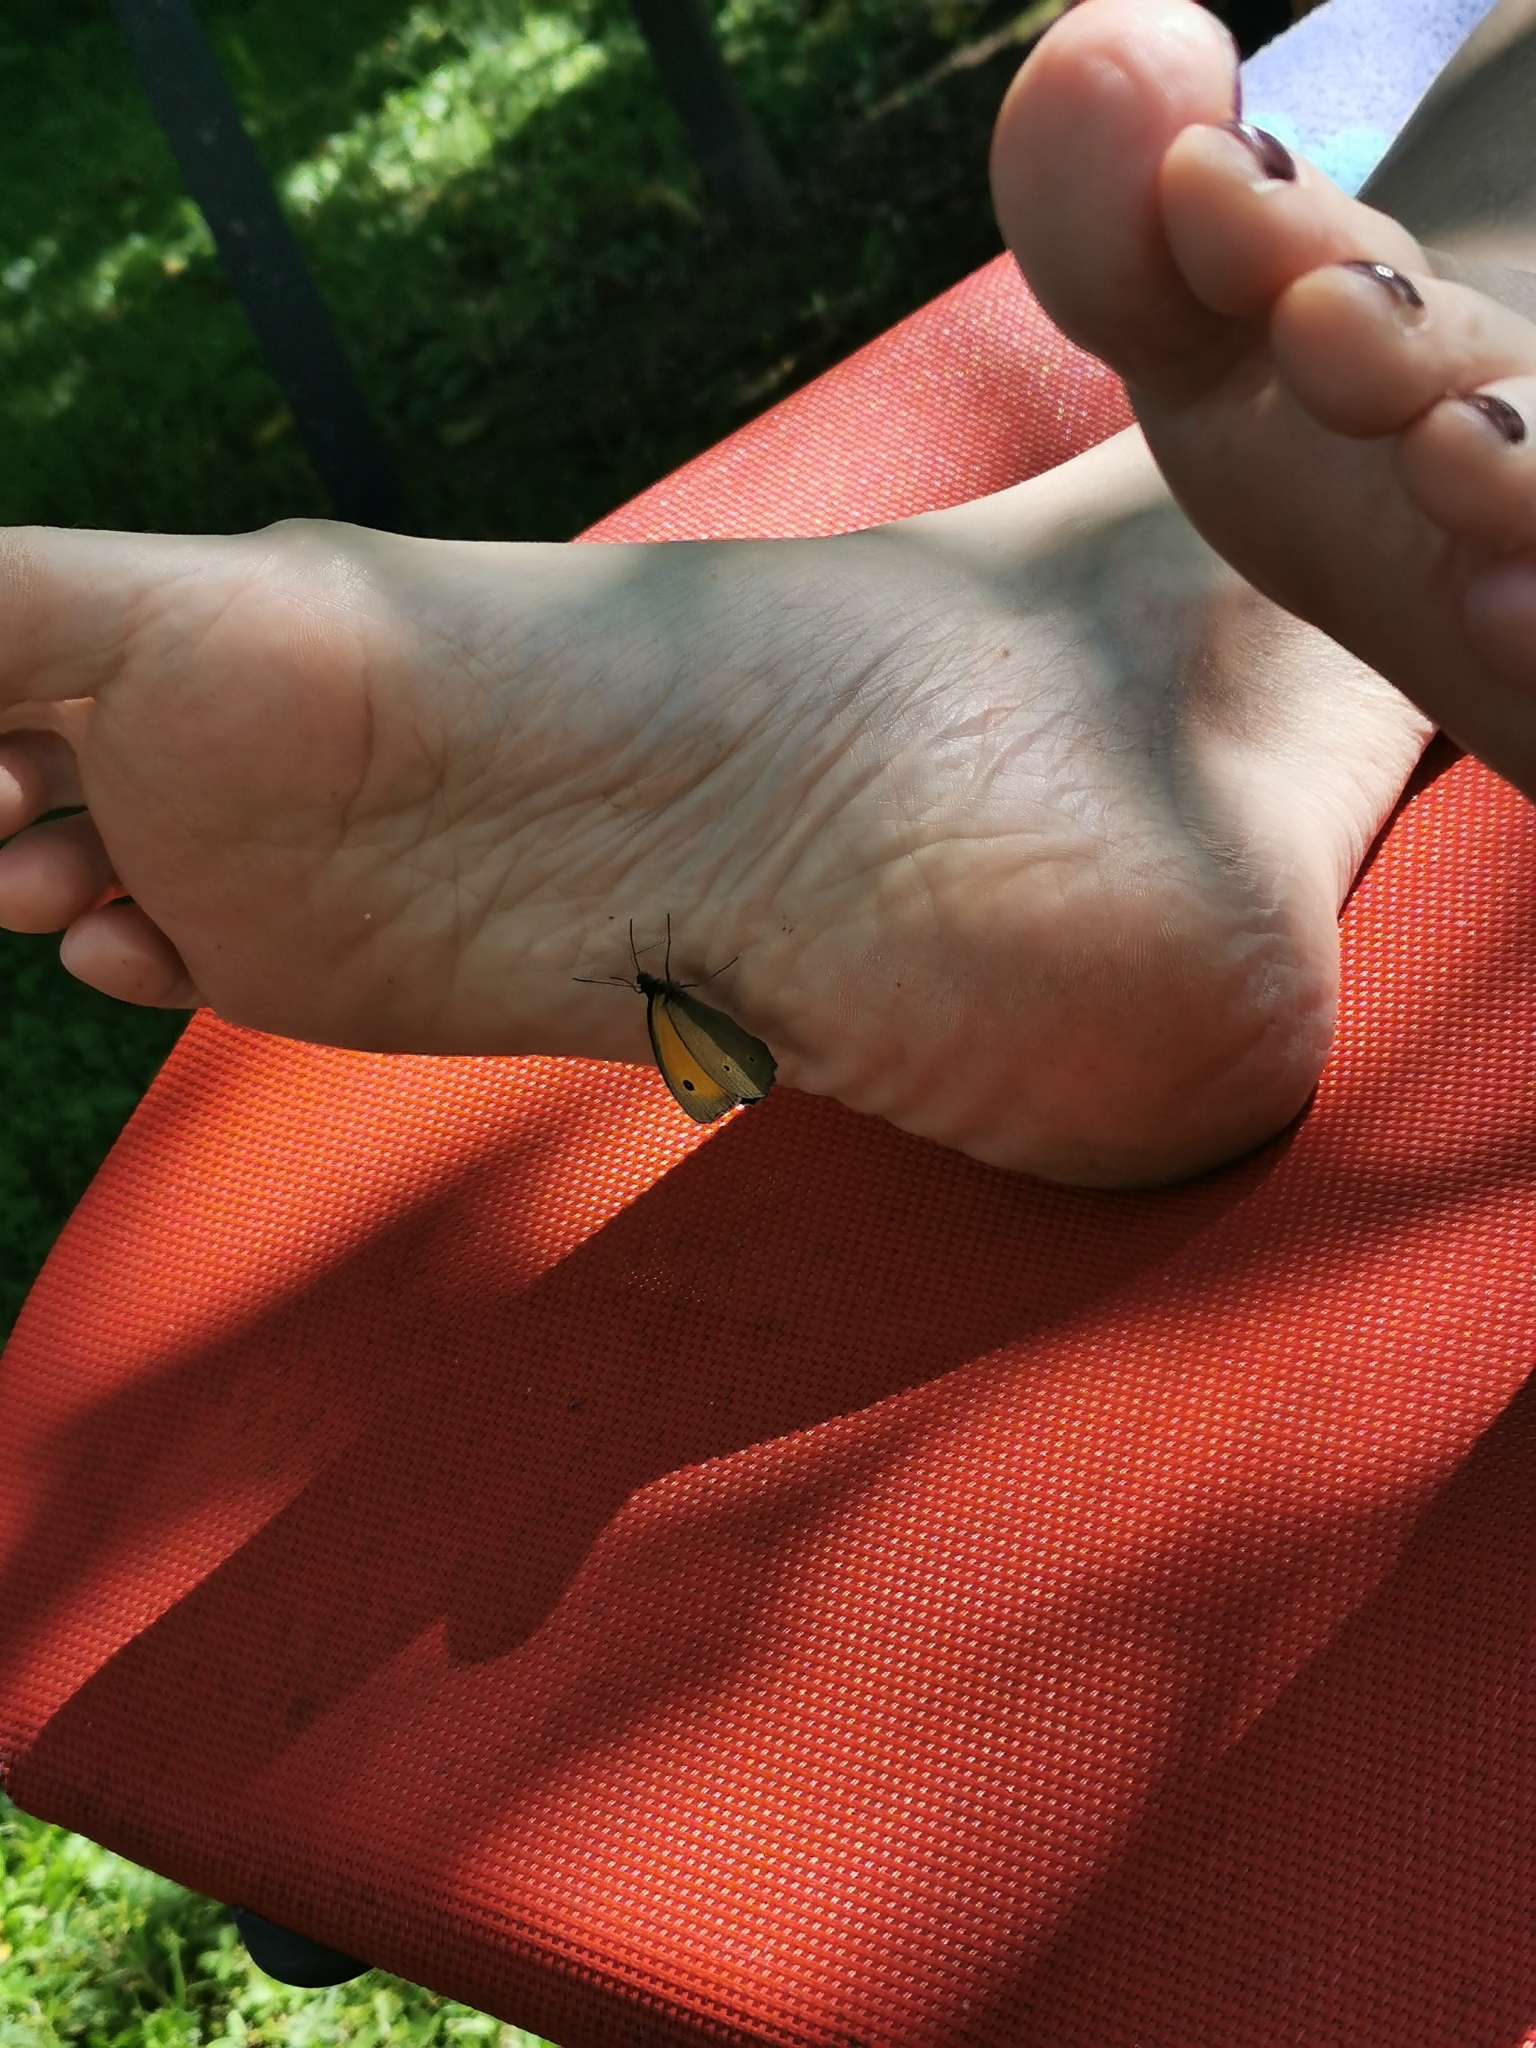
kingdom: Animalia
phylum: Arthropoda
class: Insecta
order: Lepidoptera
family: Nymphalidae
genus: Maniola
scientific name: Maniola jurtina
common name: Meadow brown
